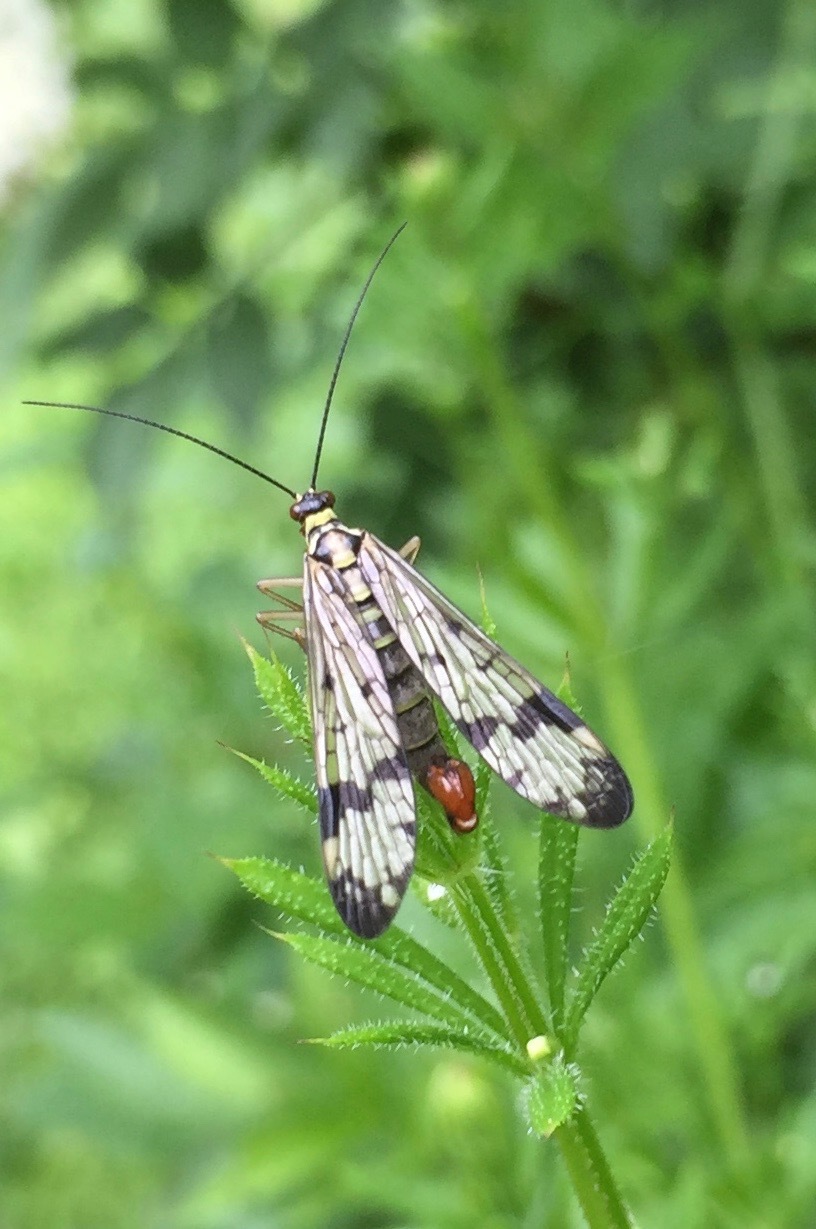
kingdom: Animalia
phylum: Arthropoda
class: Insecta
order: Mecoptera
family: Panorpidae
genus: Panorpa
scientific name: Panorpa communis
